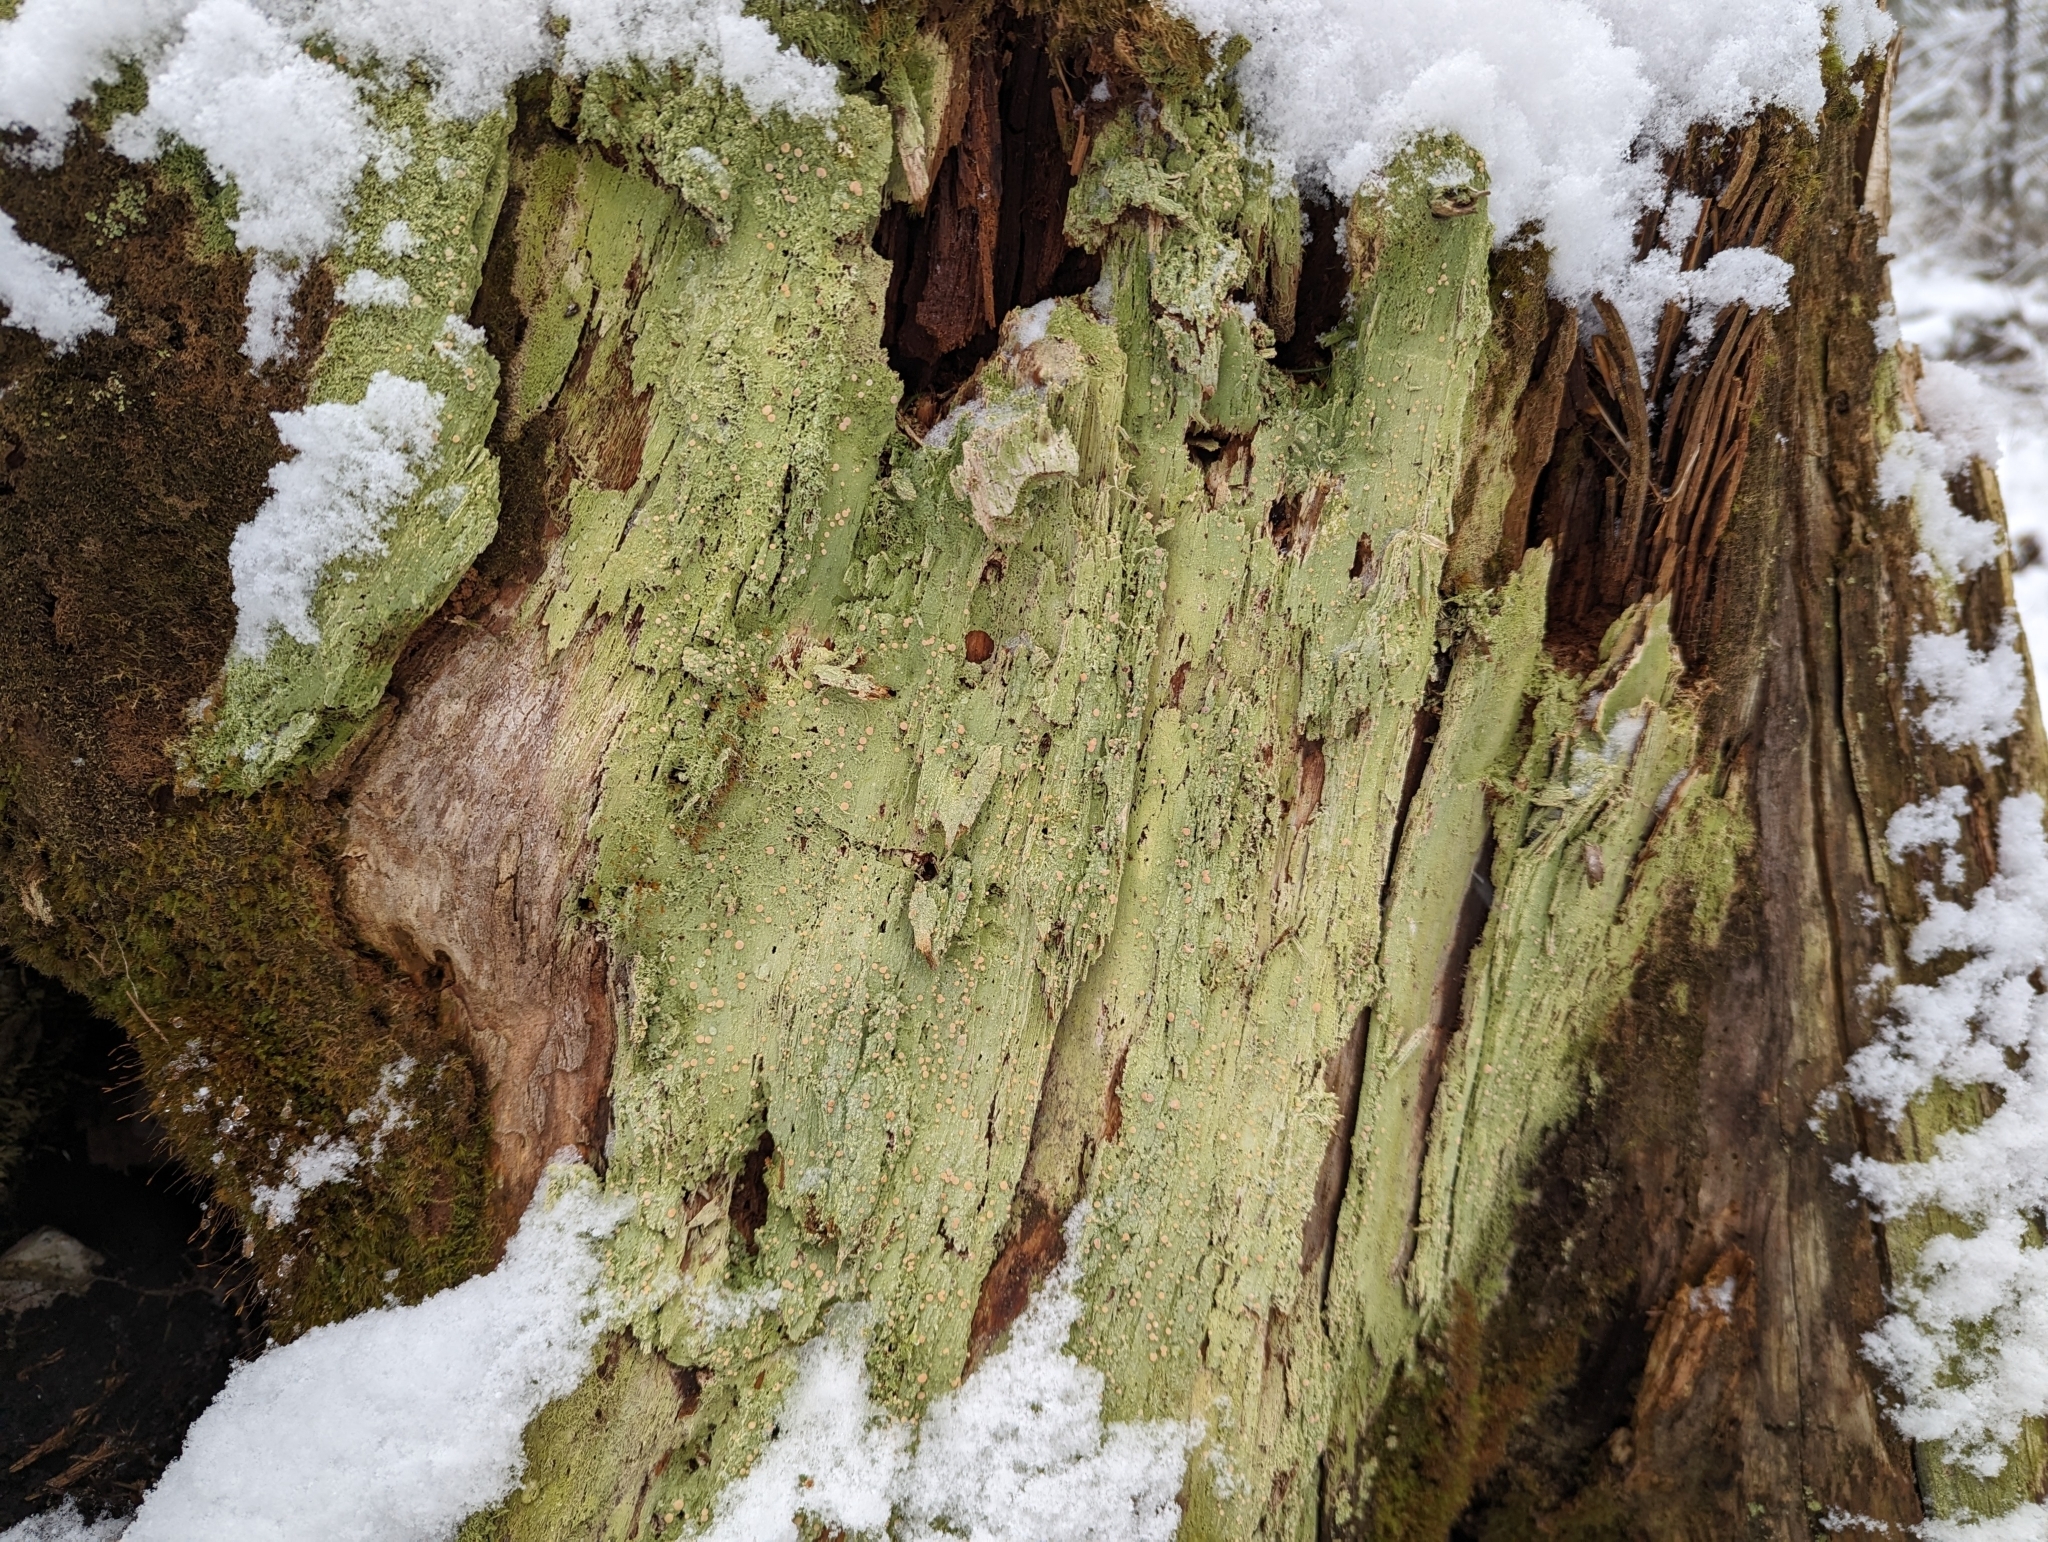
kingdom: Fungi
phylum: Ascomycota
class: Lecanoromycetes
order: Pertusariales
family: Icmadophilaceae
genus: Icmadophila
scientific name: Icmadophila ericetorum
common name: Candy lichen
